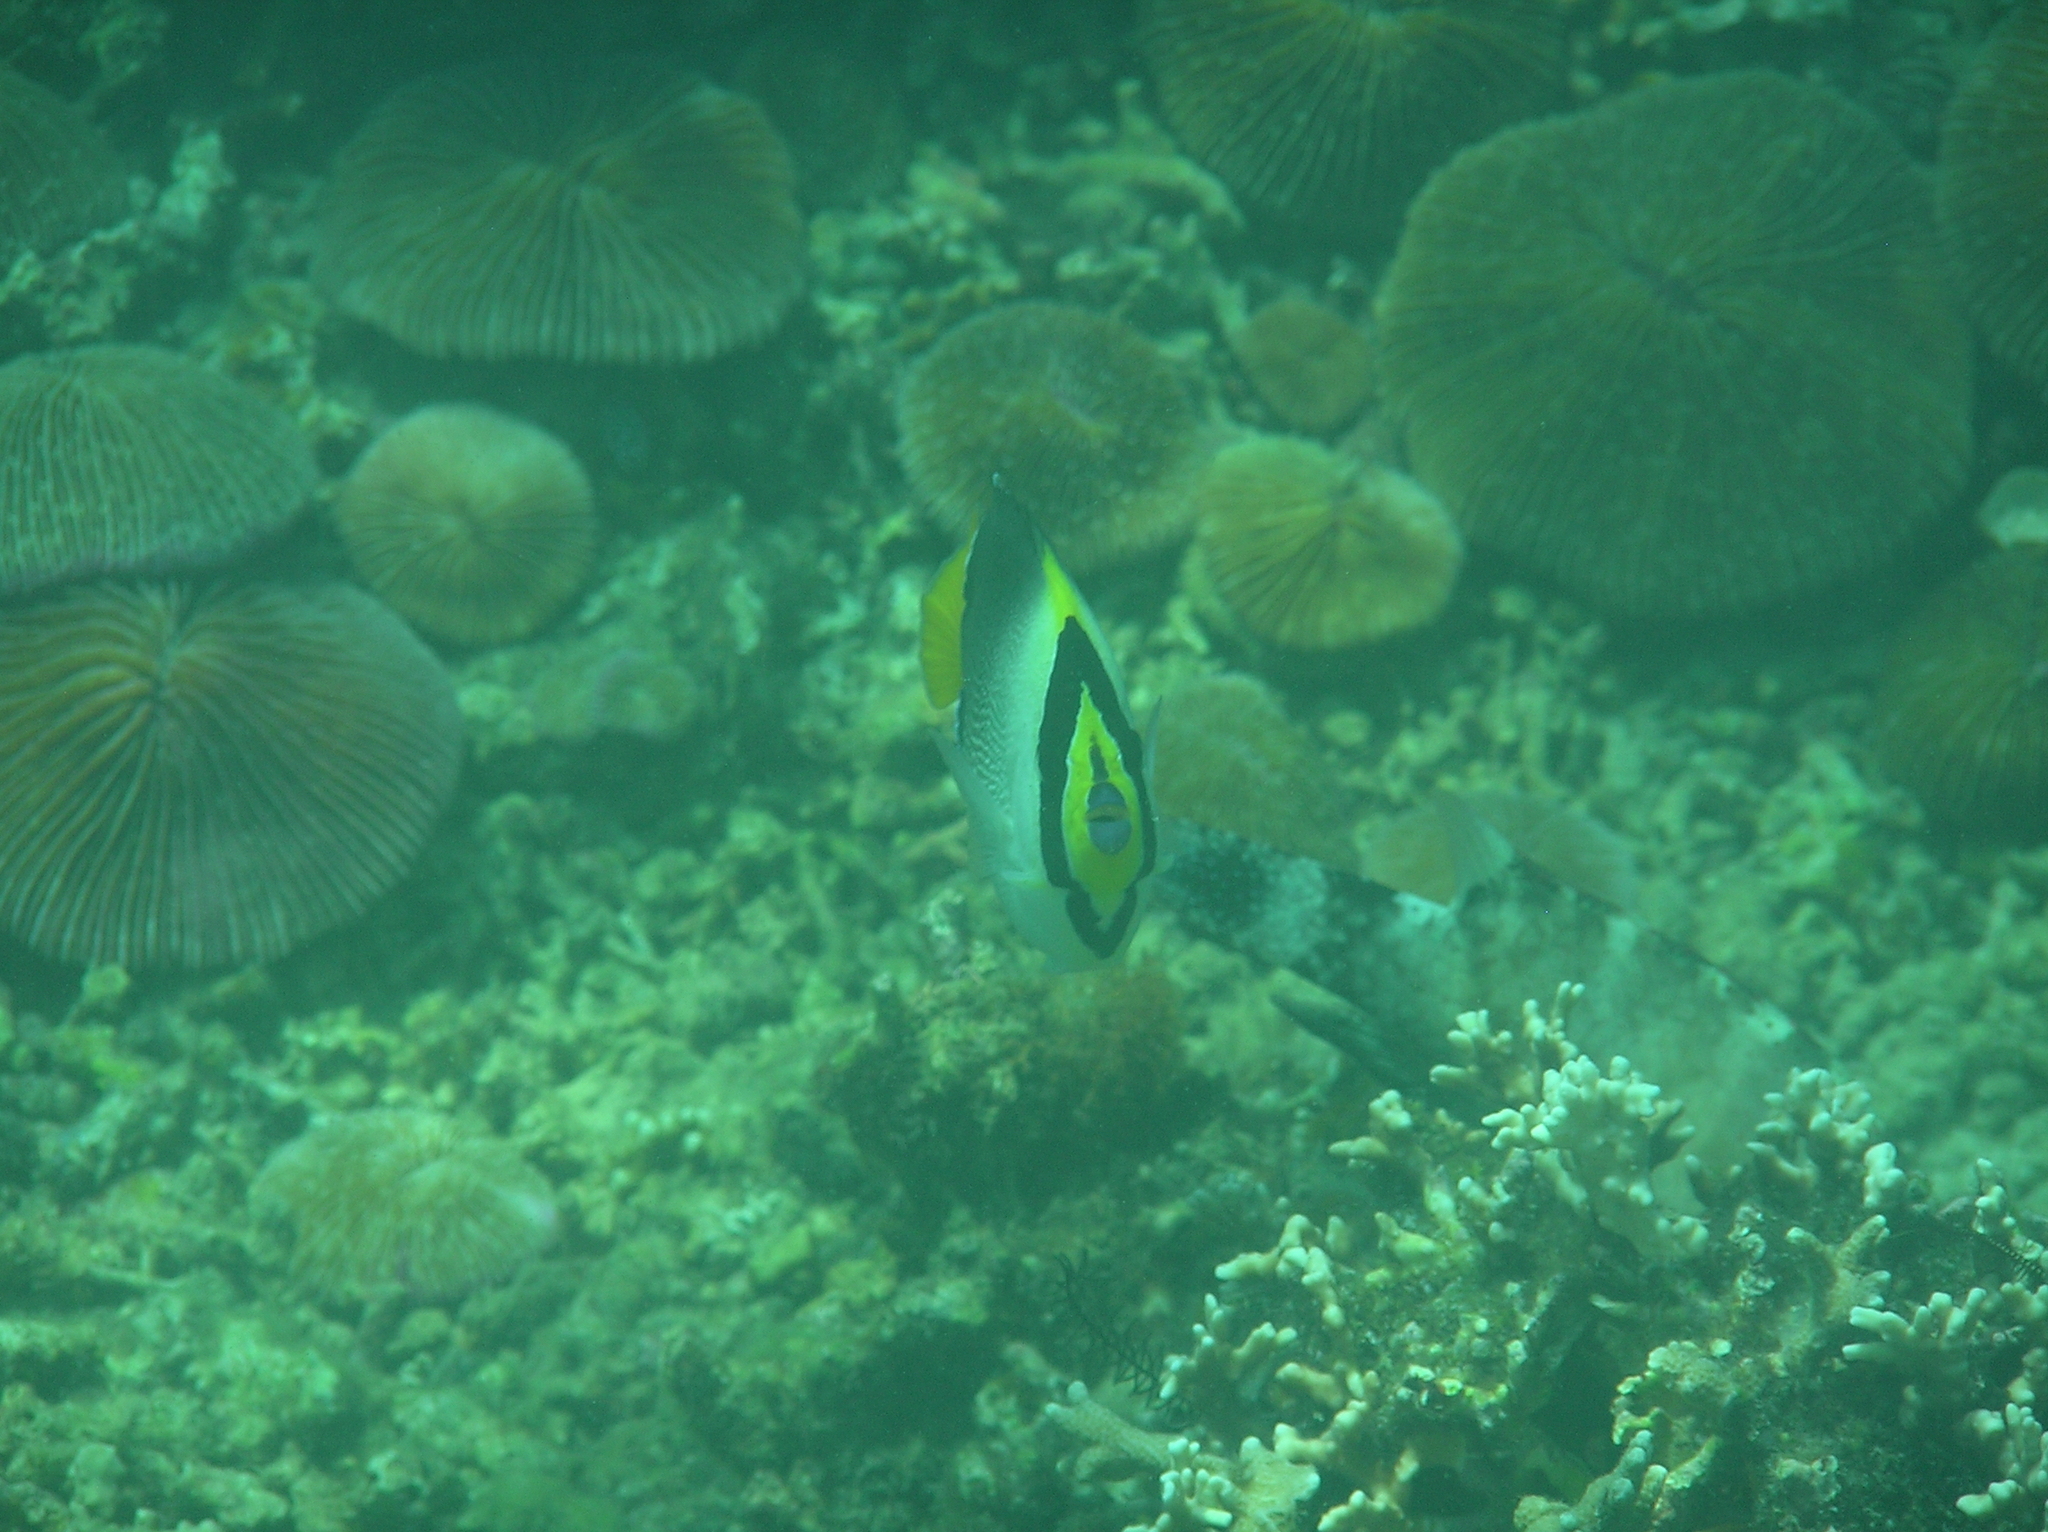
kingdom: Animalia
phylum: Chordata
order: Perciformes
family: Pomacanthidae
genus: Chaetodontoplus
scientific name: Chaetodontoplus mesoleucus
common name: Vermiculated angelfish
